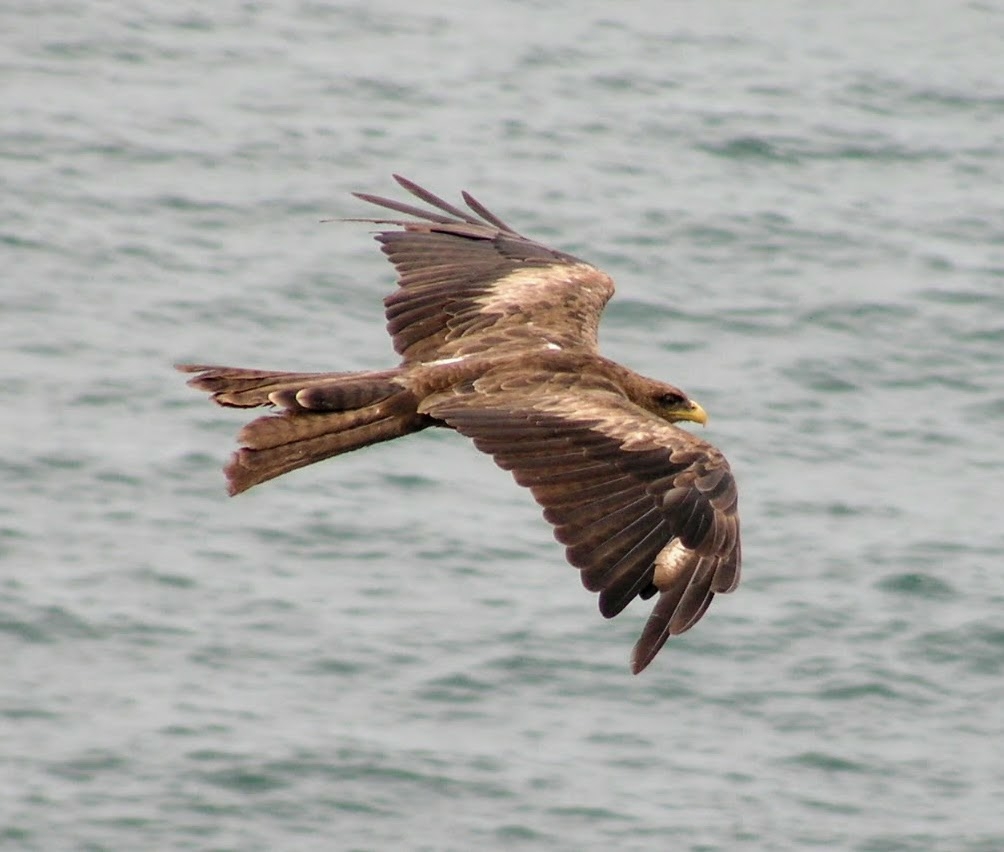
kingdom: Animalia
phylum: Chordata
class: Aves
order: Accipitriformes
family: Accipitridae
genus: Milvus
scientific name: Milvus migrans
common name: Black kite
